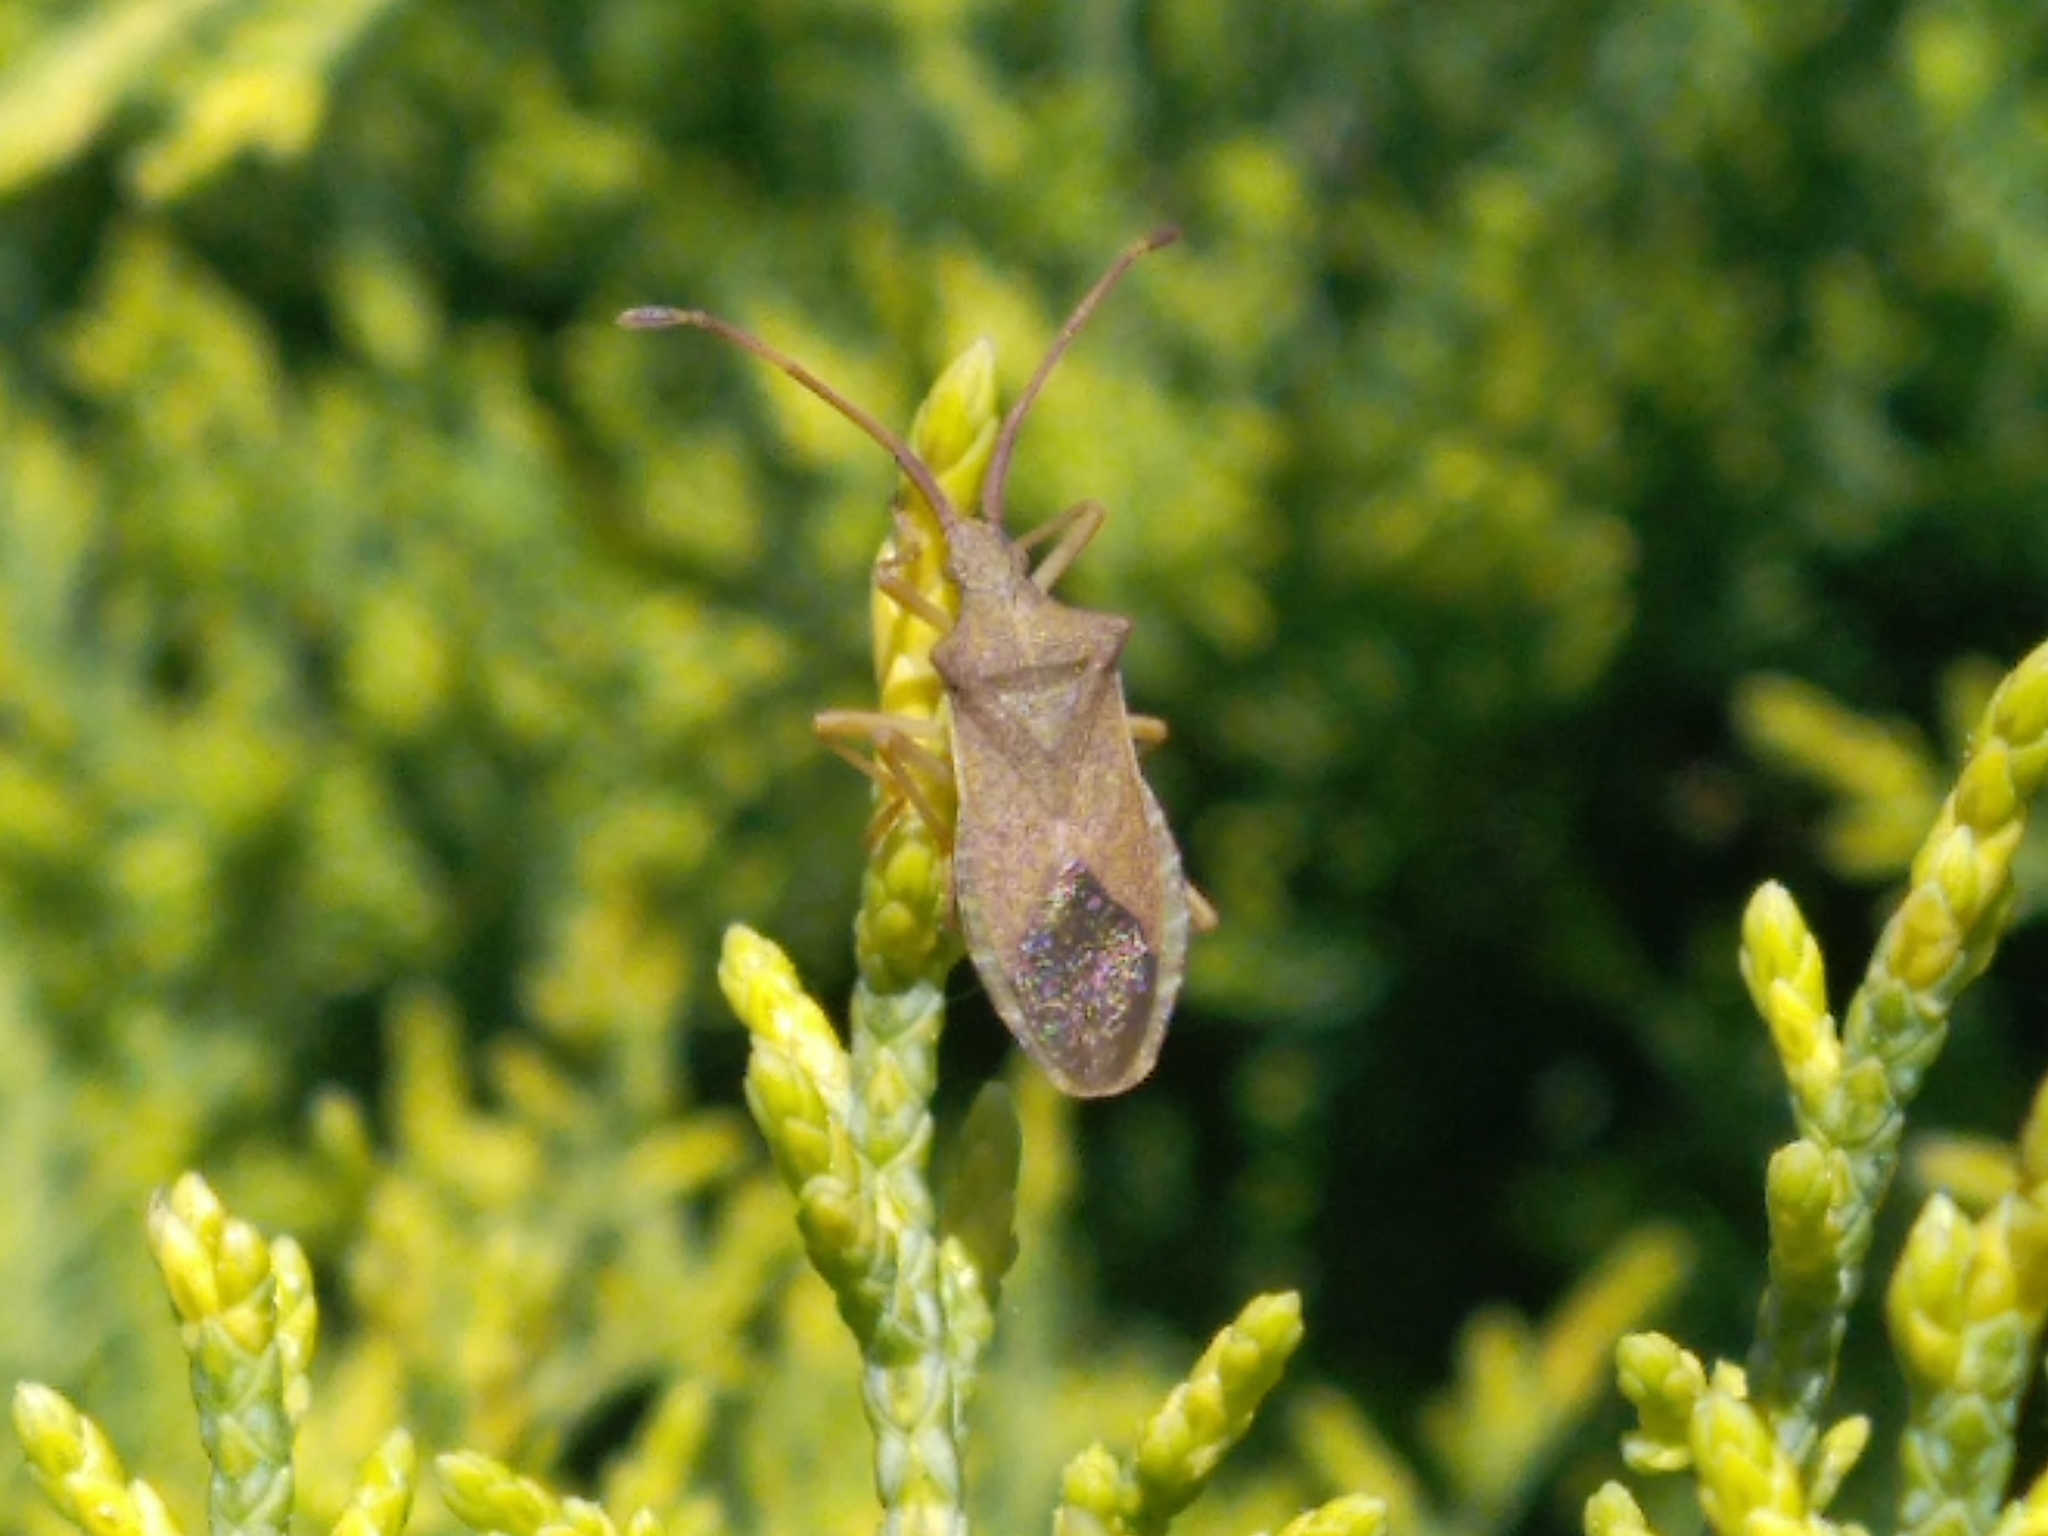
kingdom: Animalia
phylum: Arthropoda
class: Insecta
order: Hemiptera
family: Coreidae
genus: Gonocerus
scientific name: Gonocerus acuteangulatus
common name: Box bug
